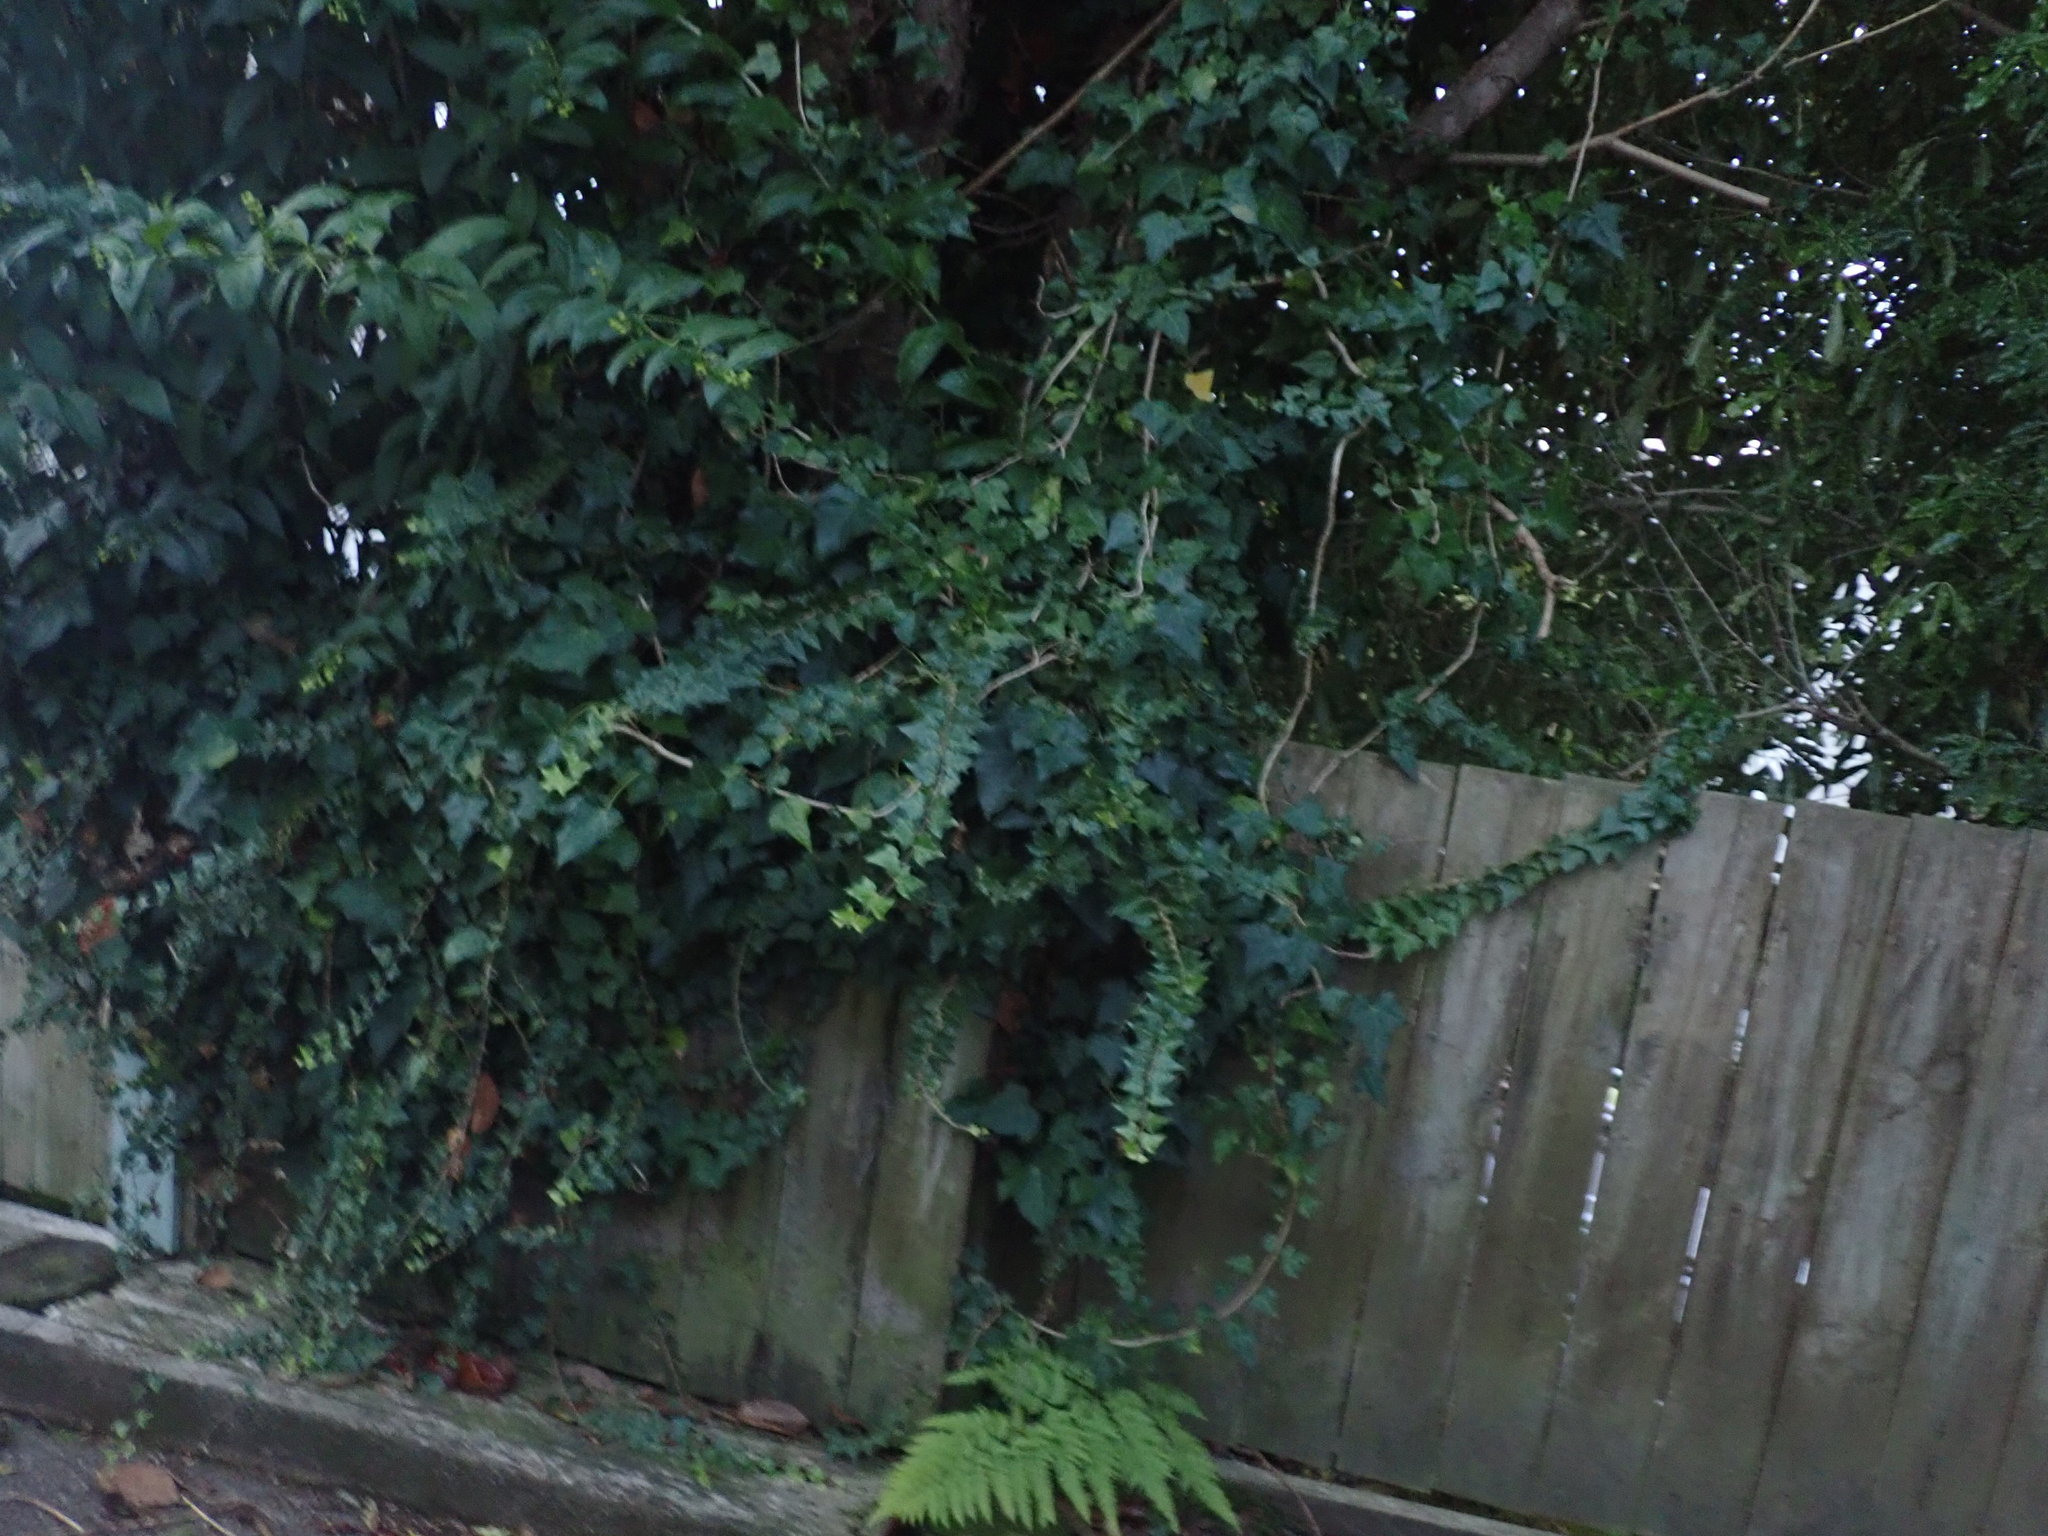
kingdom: Plantae
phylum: Tracheophyta
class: Magnoliopsida
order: Apiales
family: Araliaceae
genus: Hedera
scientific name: Hedera helix
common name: Ivy
